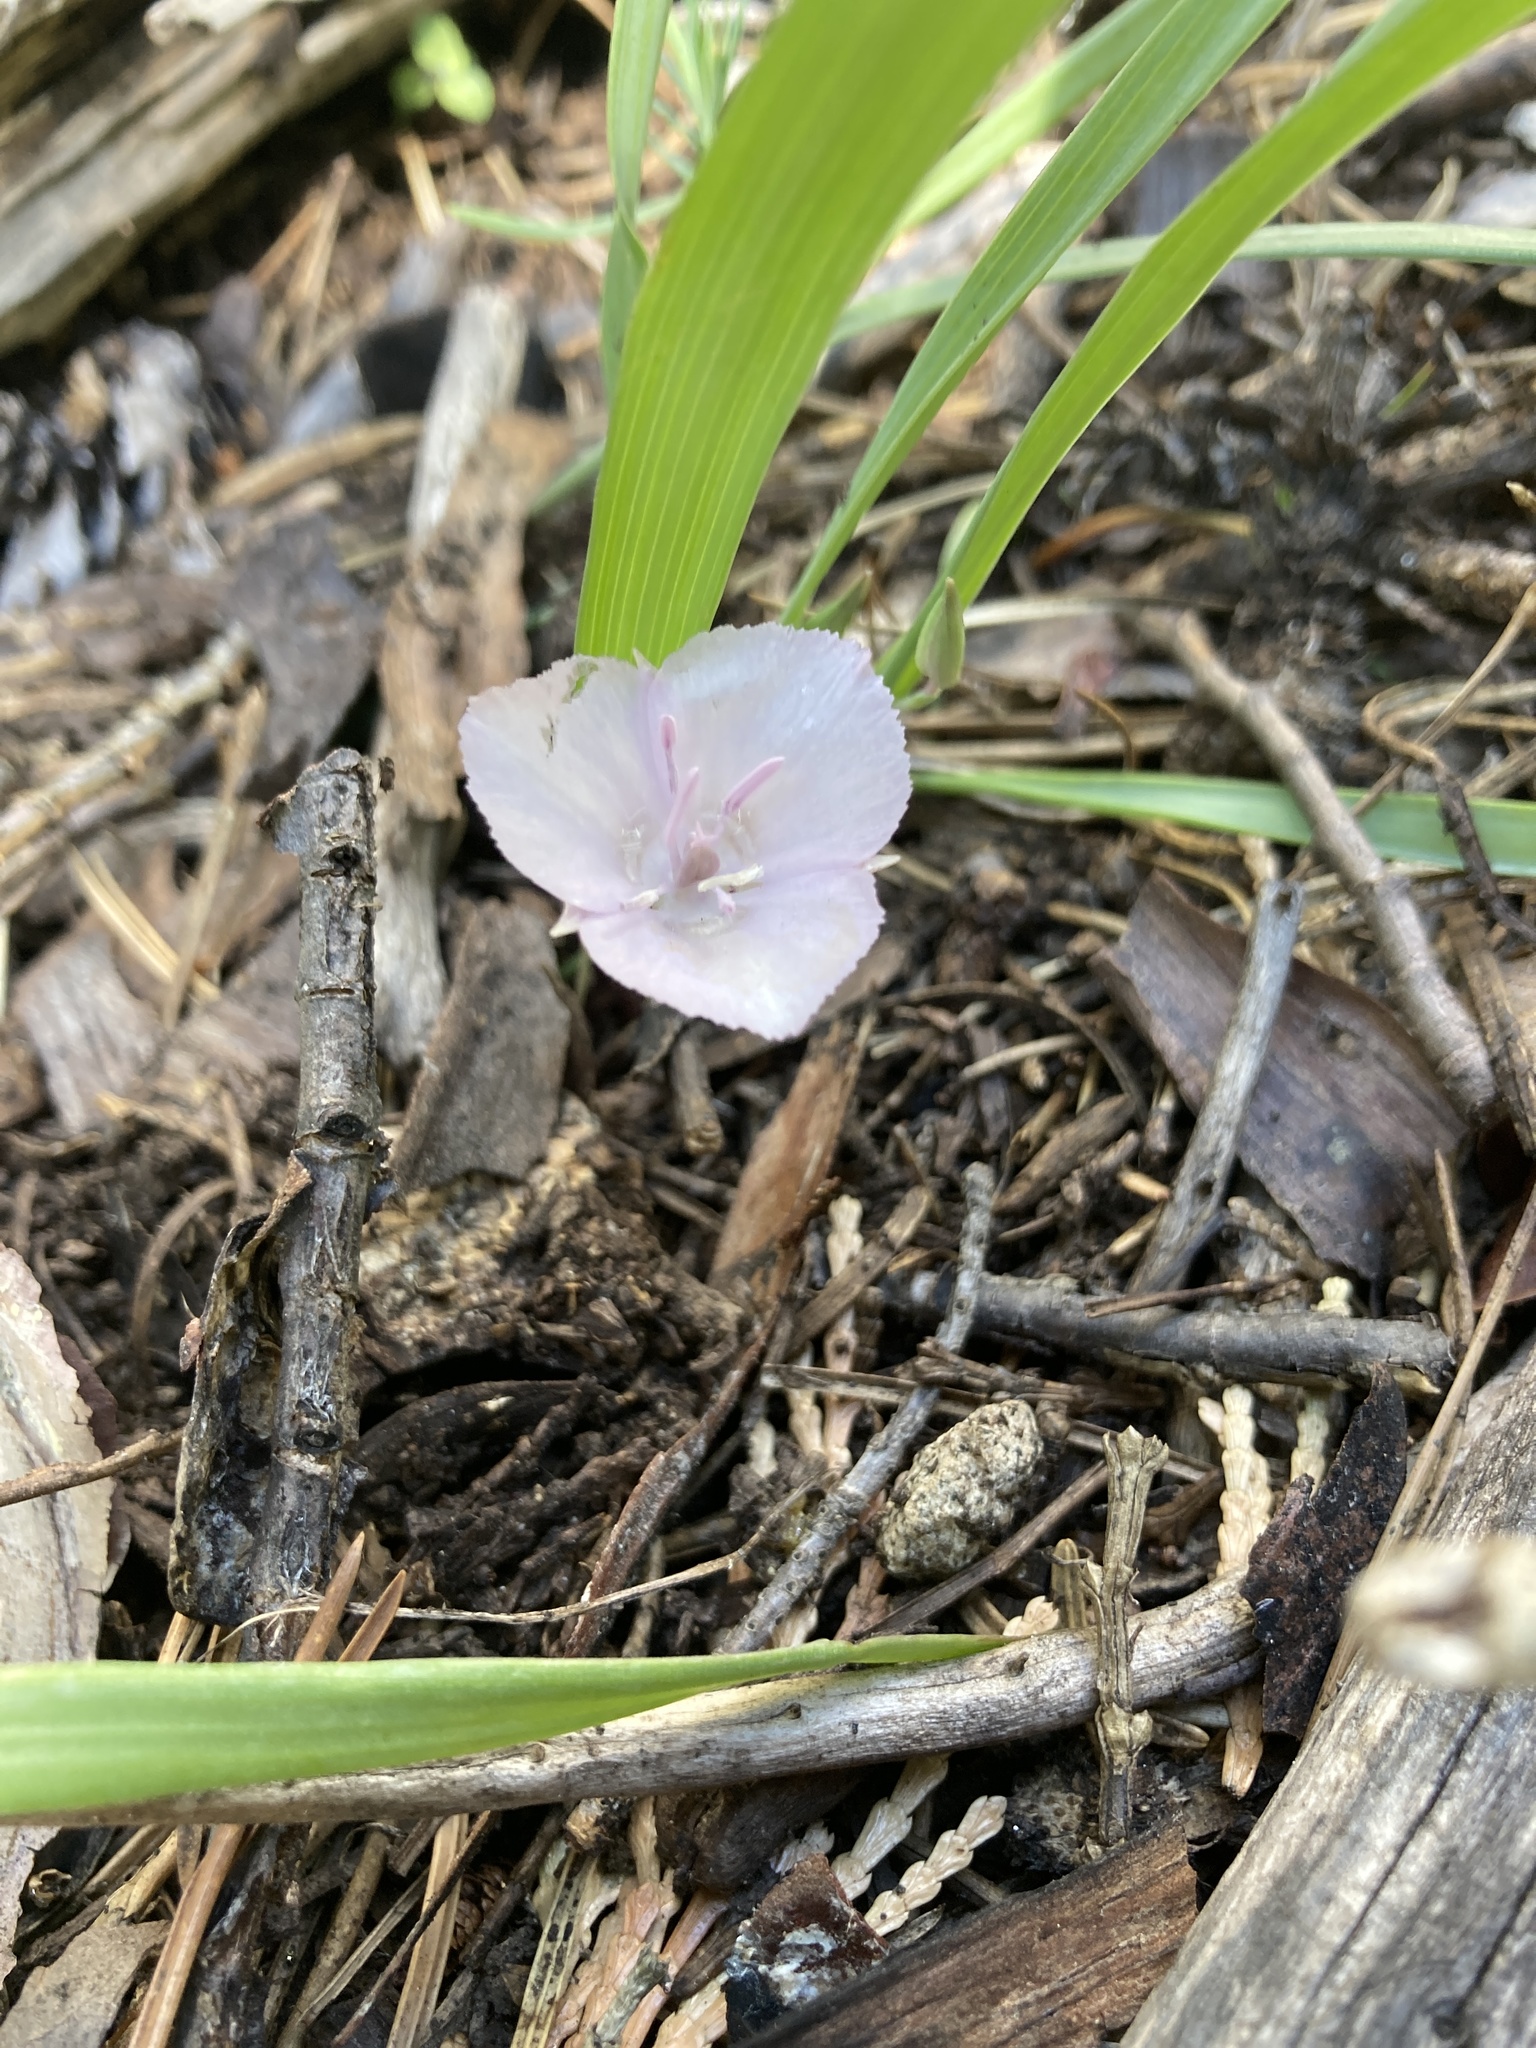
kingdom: Plantae
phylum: Tracheophyta
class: Liliopsida
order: Liliales
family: Liliaceae
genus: Calochortus
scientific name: Calochortus minimus
